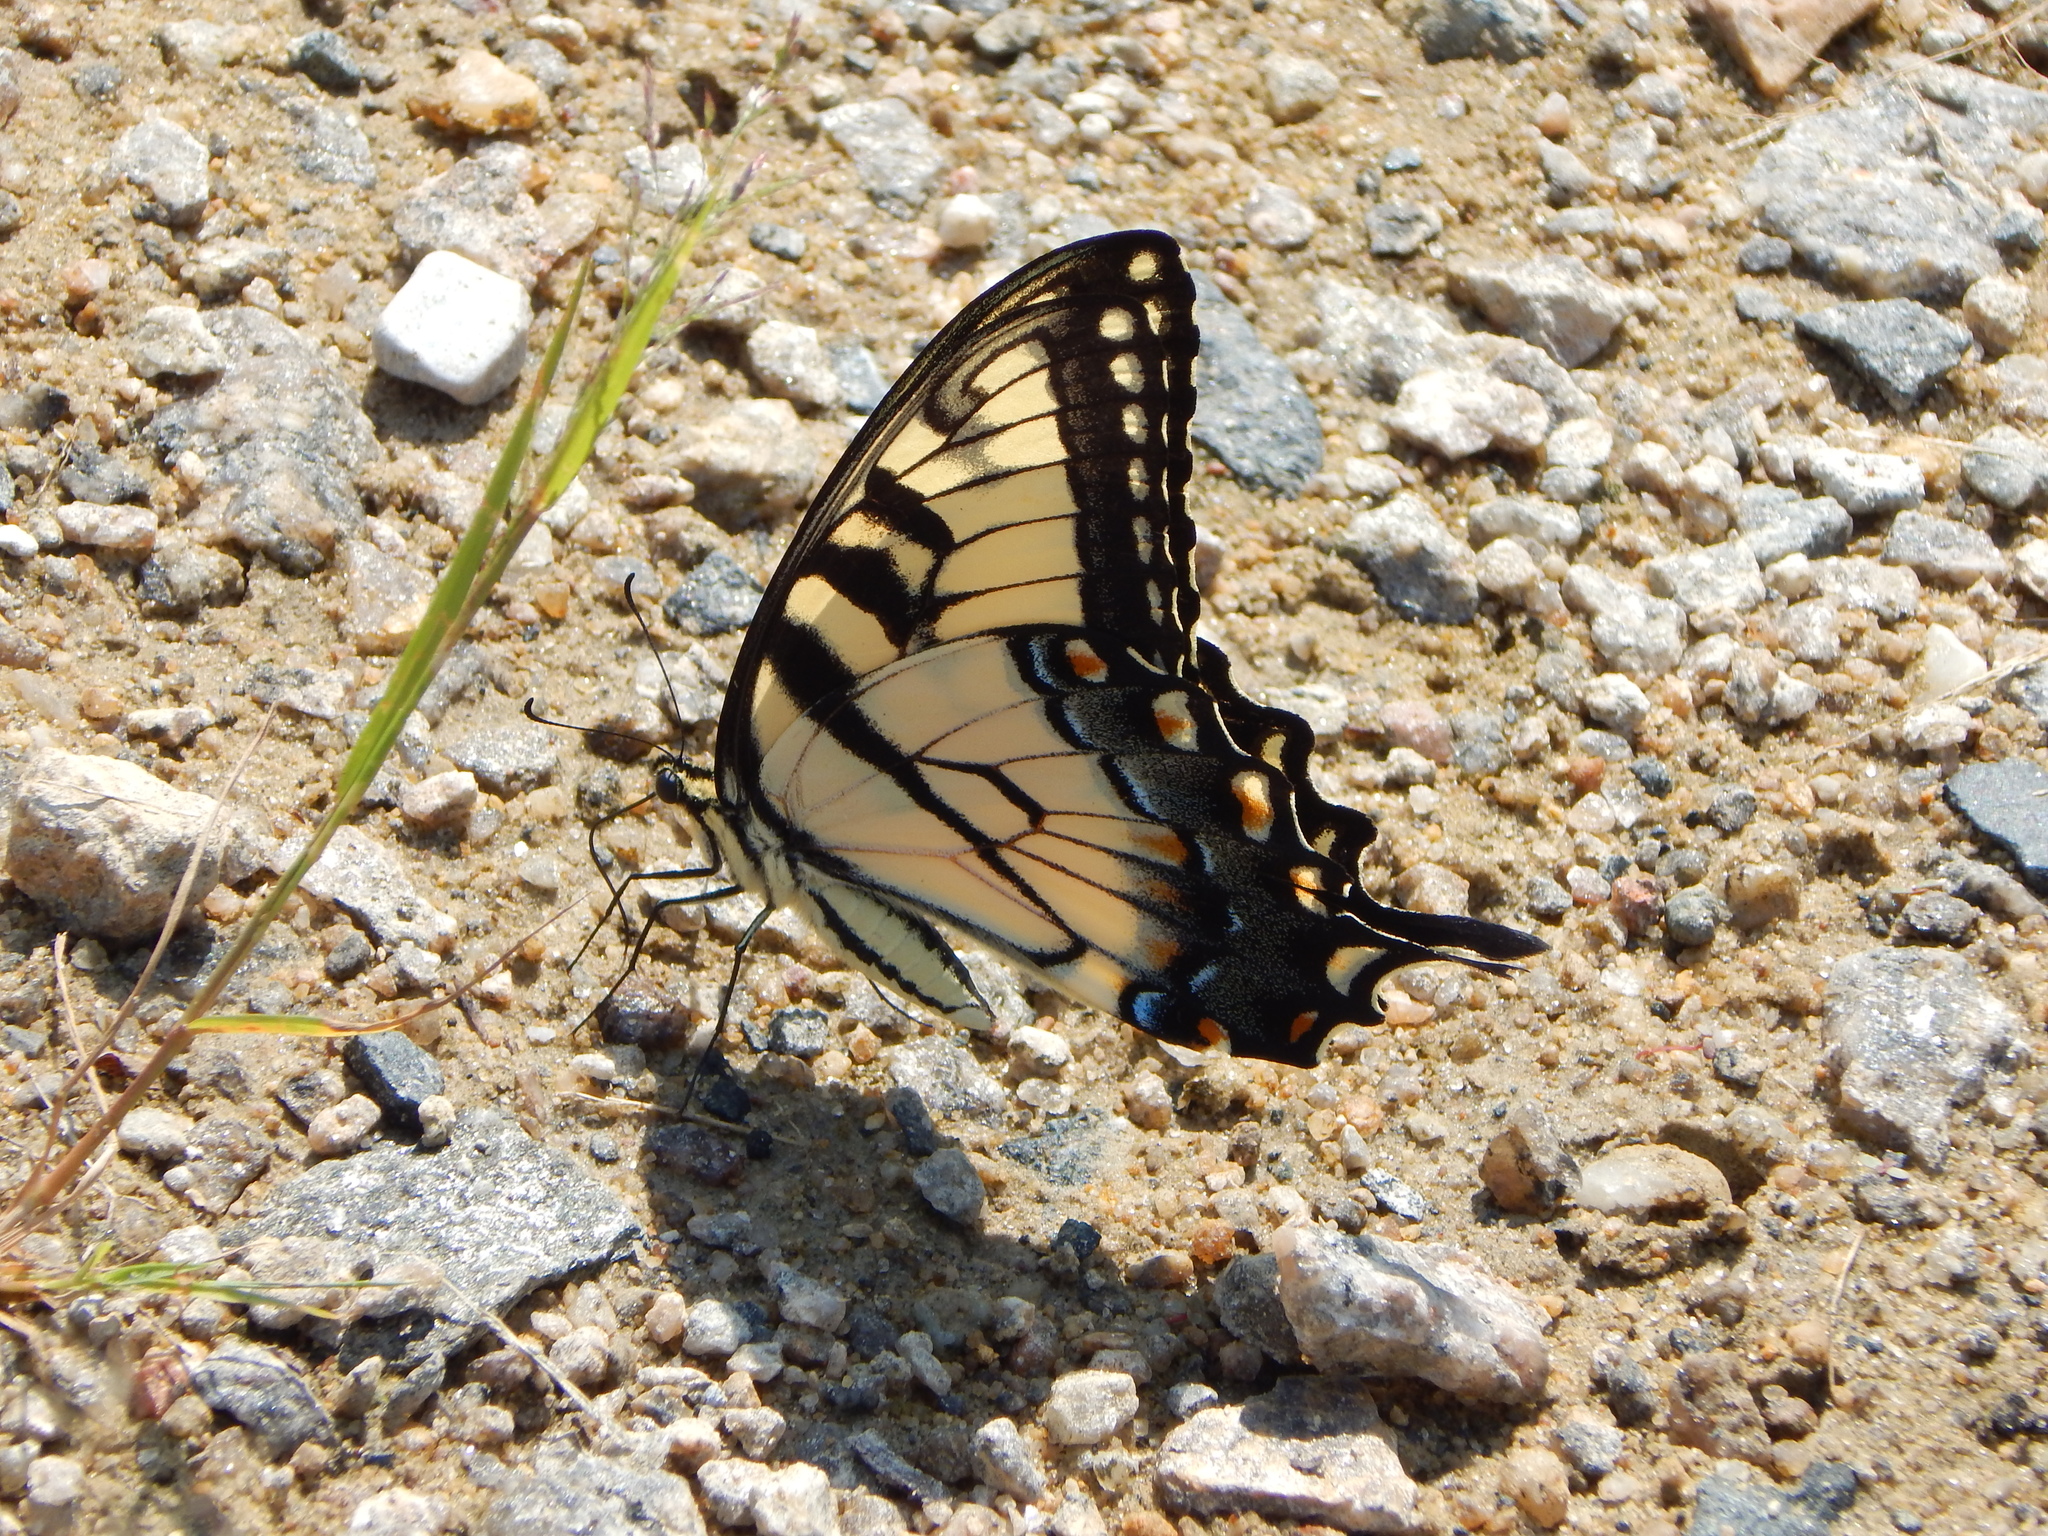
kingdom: Animalia
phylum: Arthropoda
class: Insecta
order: Lepidoptera
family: Papilionidae
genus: Papilio
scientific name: Papilio glaucus
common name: Tiger swallowtail
